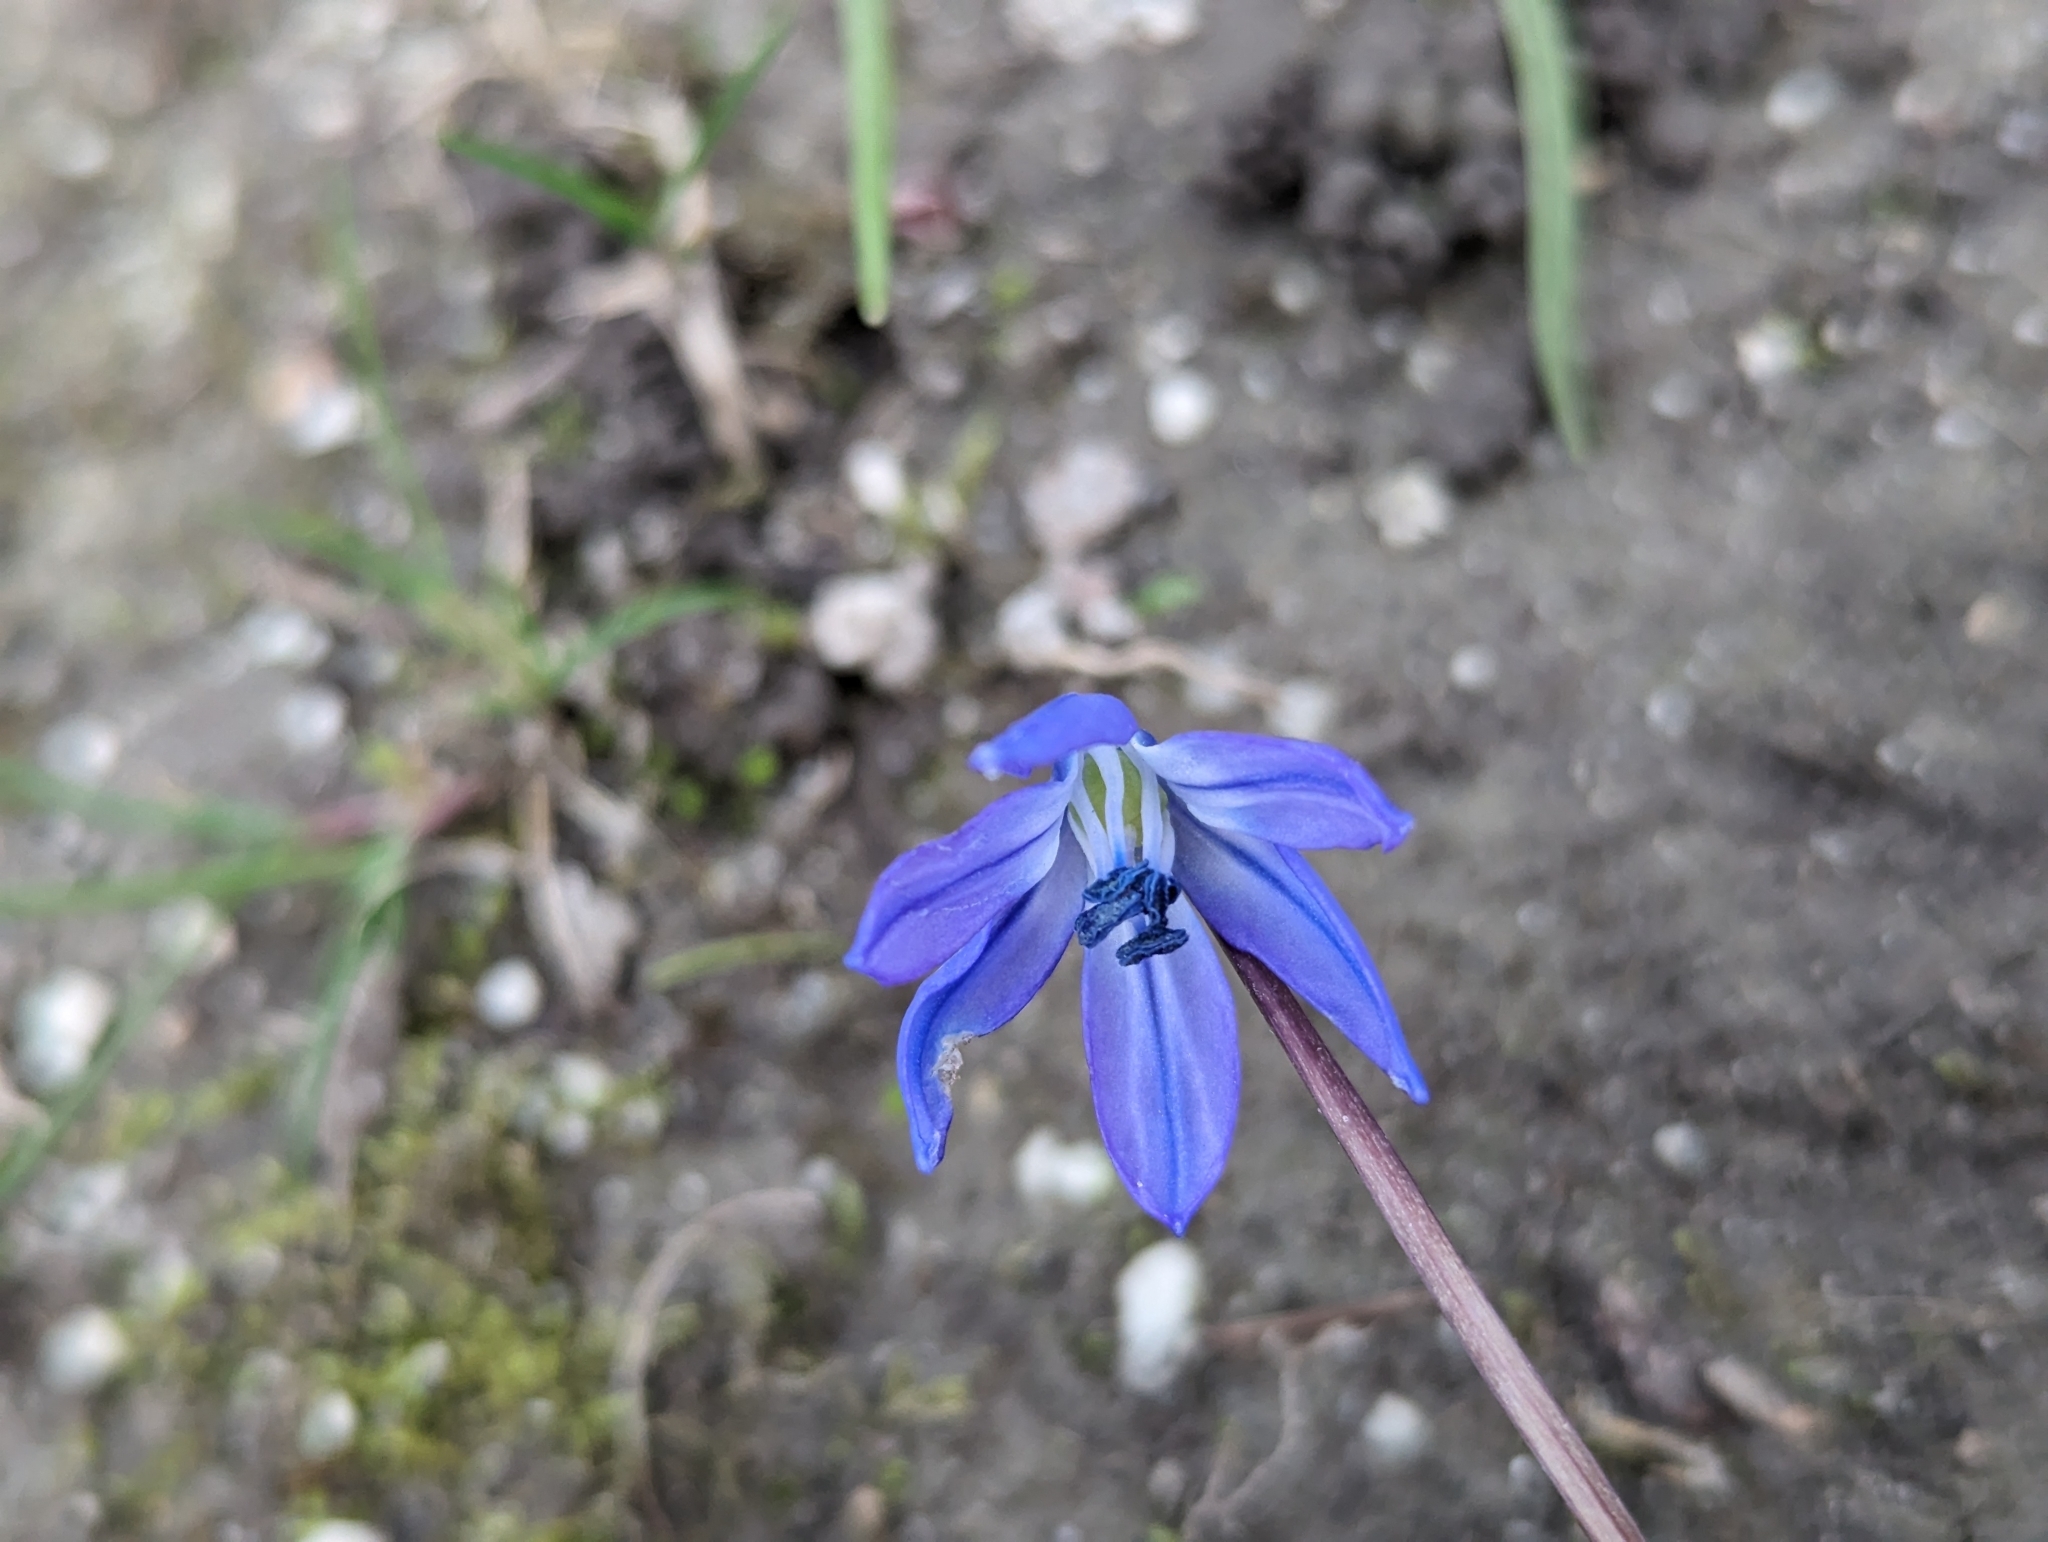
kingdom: Plantae
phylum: Tracheophyta
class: Liliopsida
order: Asparagales
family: Asparagaceae
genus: Scilla
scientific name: Scilla siberica
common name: Siberian squill
